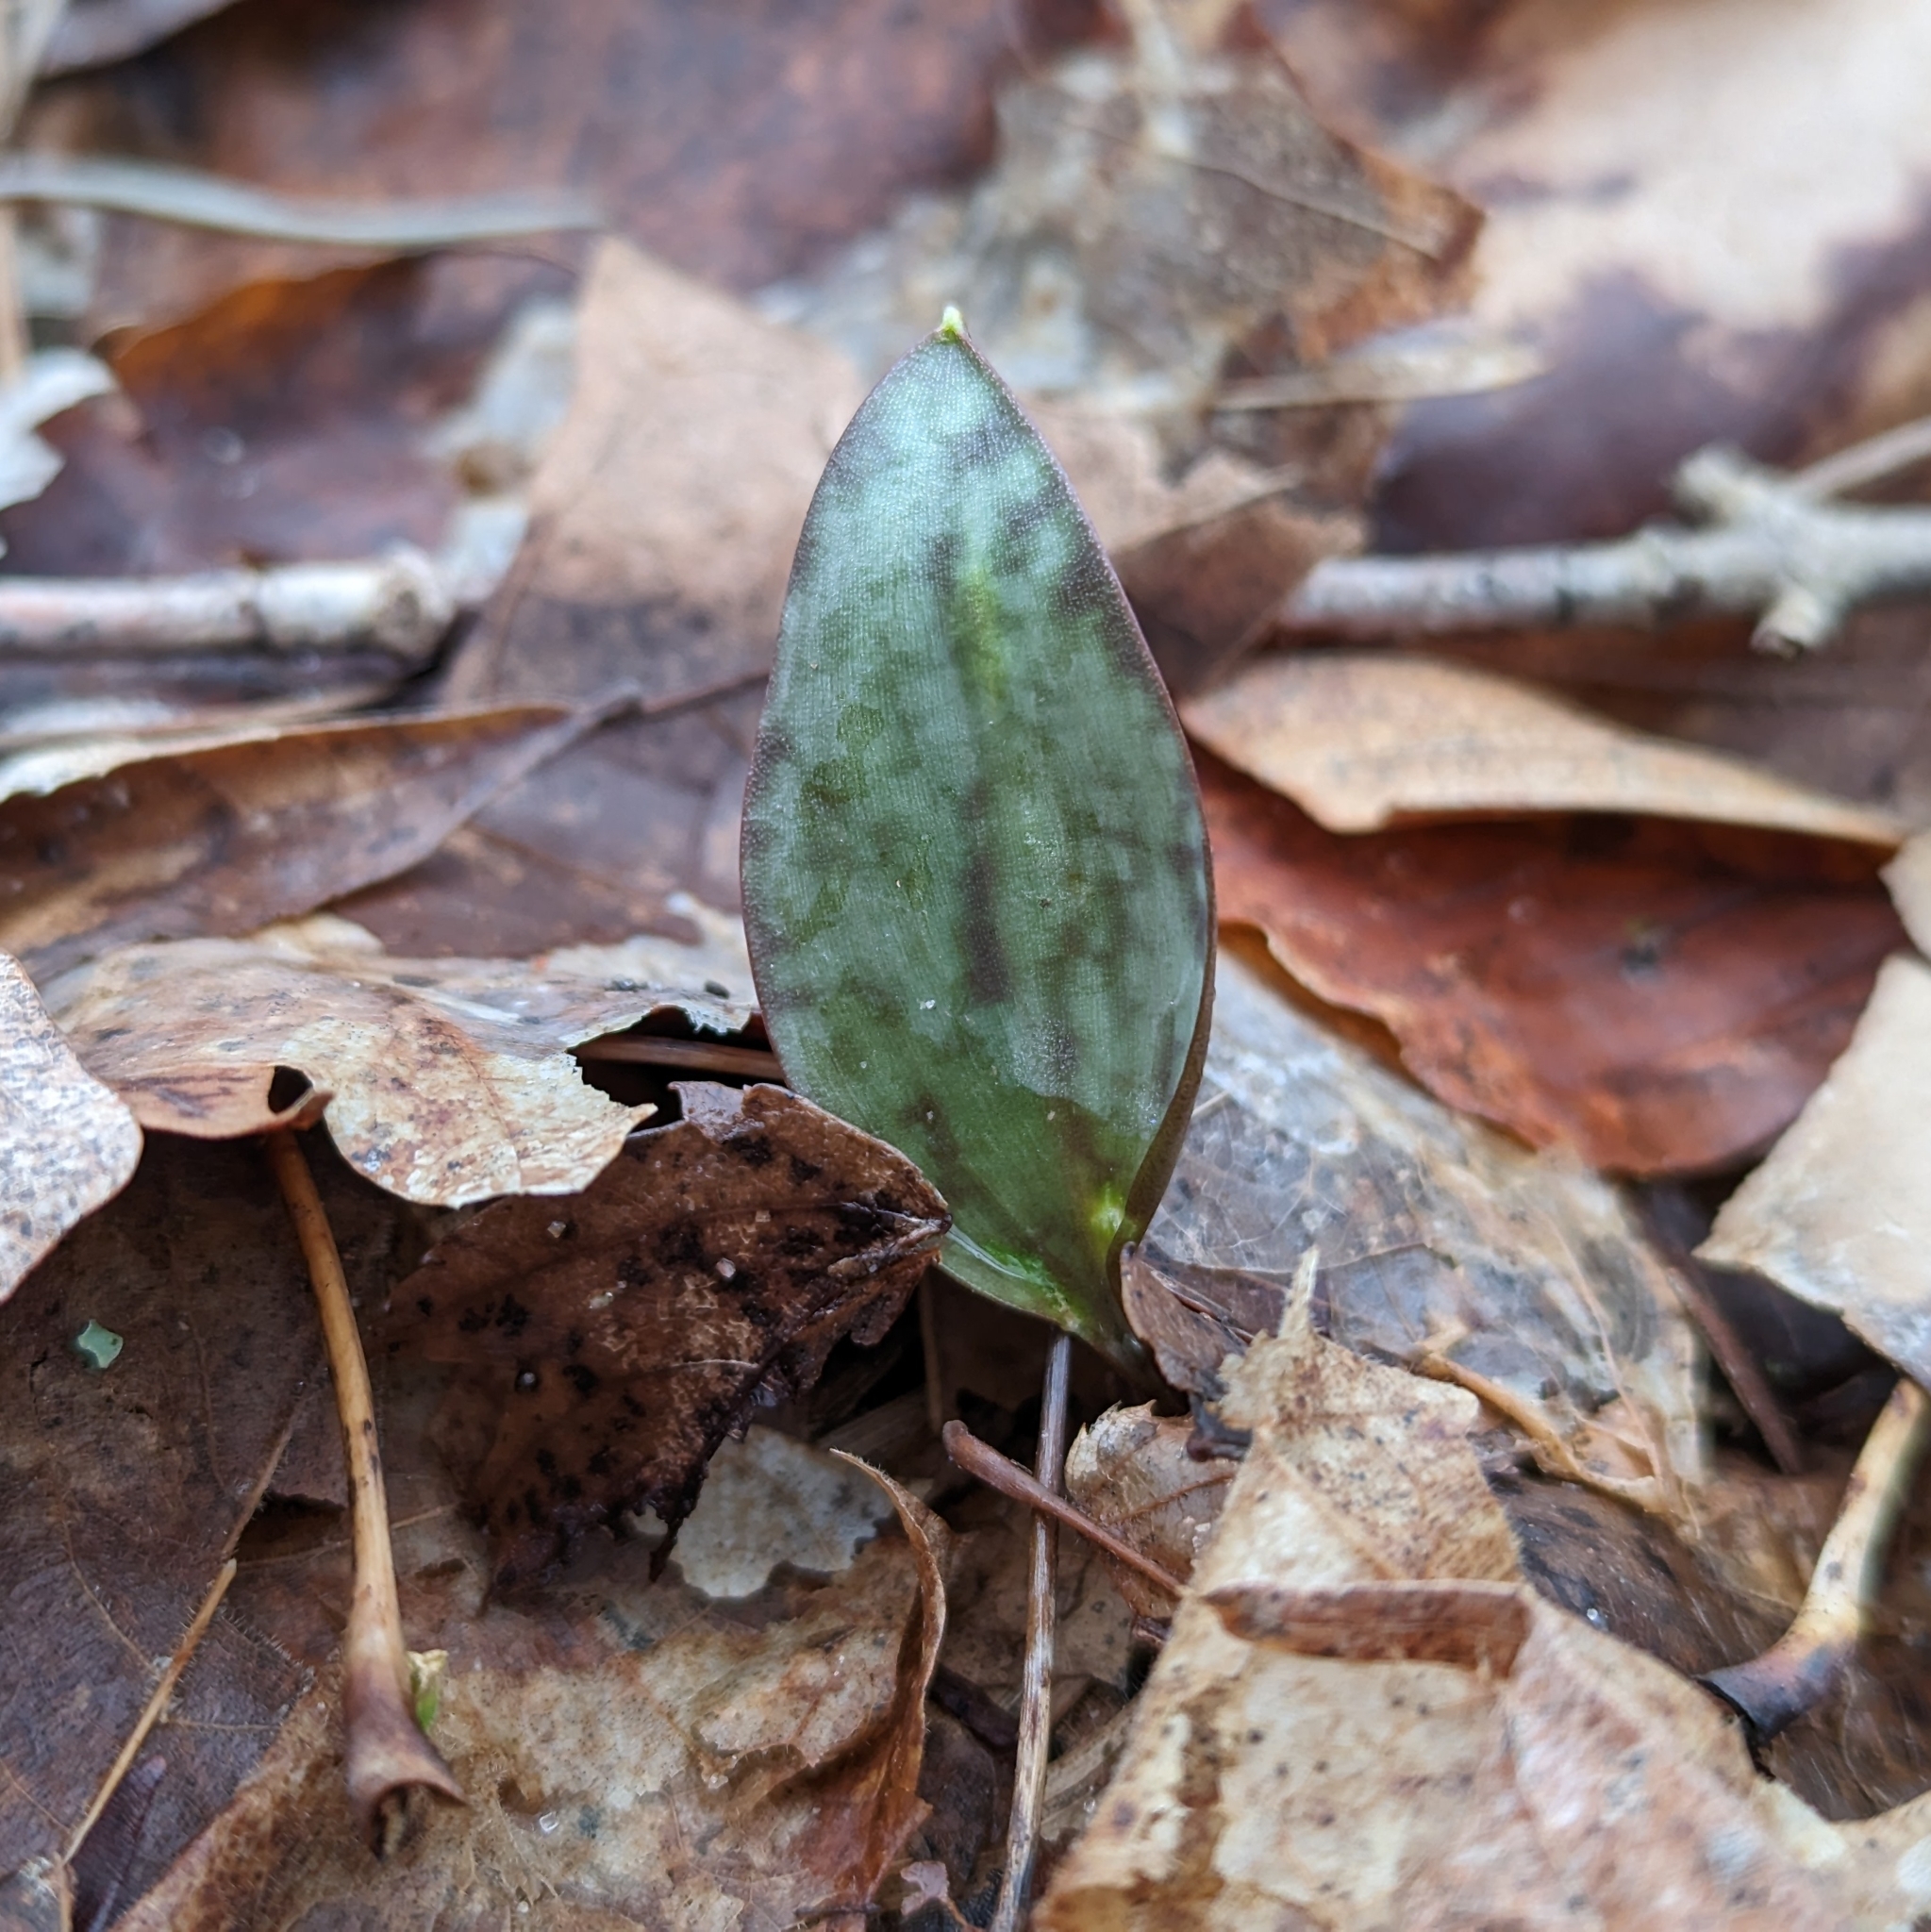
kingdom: Plantae
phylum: Tracheophyta
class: Liliopsida
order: Liliales
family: Liliaceae
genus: Erythronium
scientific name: Erythronium
